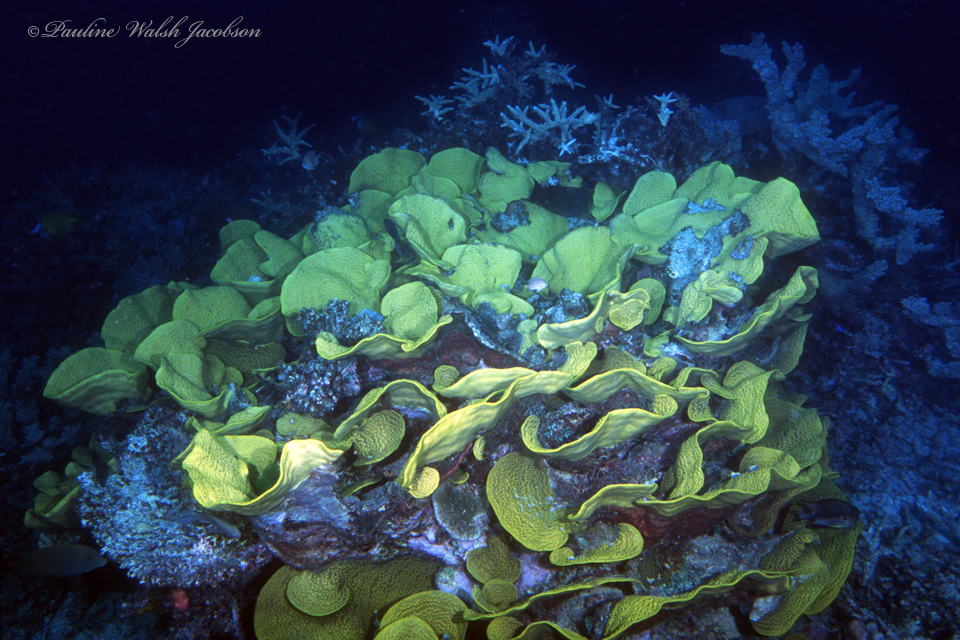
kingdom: Animalia
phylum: Cnidaria
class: Anthozoa
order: Scleractinia
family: Dendrophylliidae
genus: Turbinaria
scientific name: Turbinaria reniformis
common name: Disc coral
